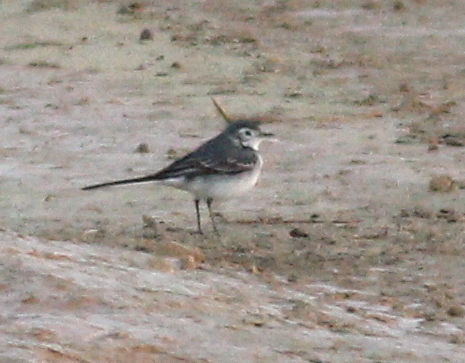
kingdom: Animalia
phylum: Chordata
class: Aves
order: Passeriformes
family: Motacillidae
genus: Motacilla
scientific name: Motacilla alba
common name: White wagtail
